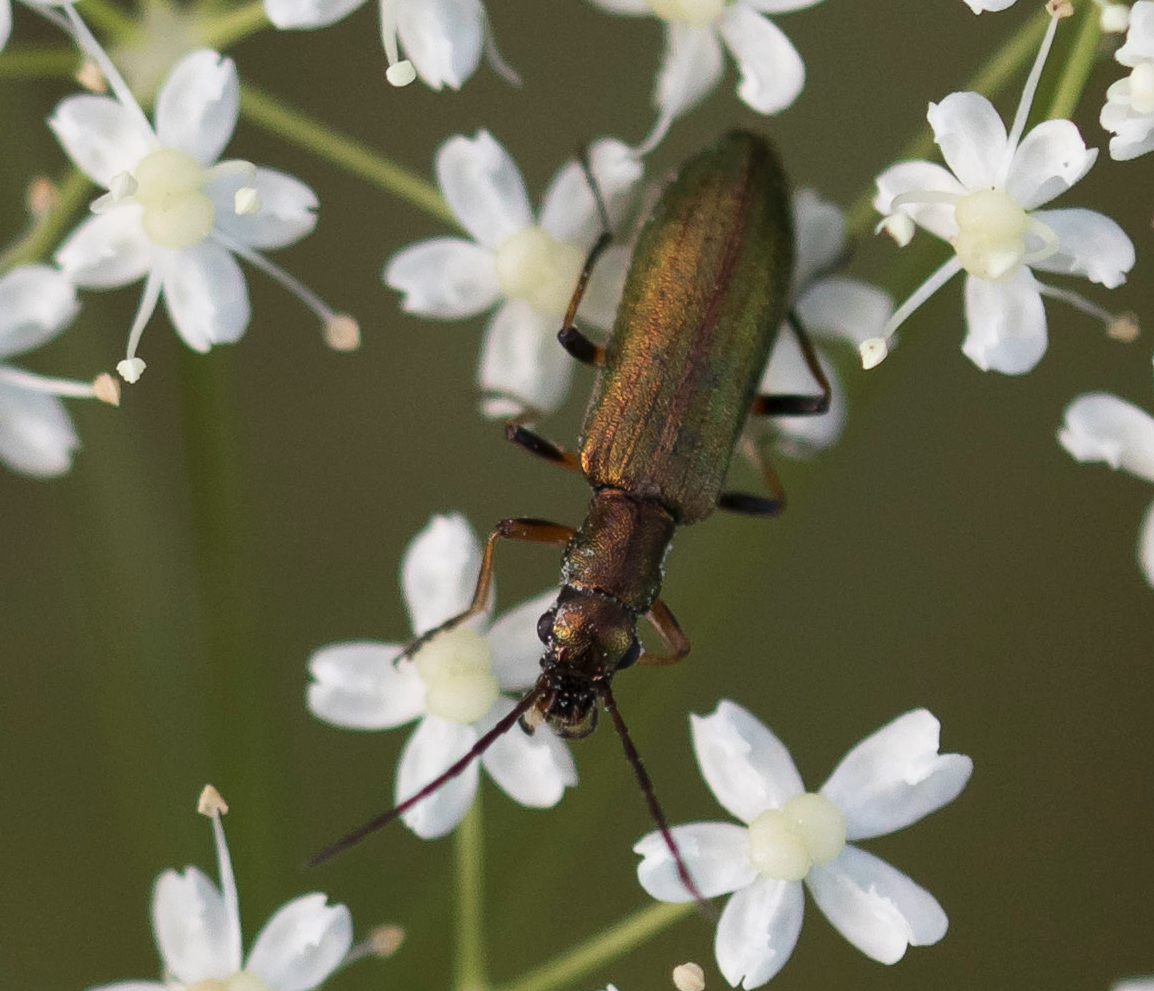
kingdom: Animalia
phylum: Arthropoda
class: Insecta
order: Coleoptera
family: Oedemeridae
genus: Chrysanthia
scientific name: Chrysanthia geniculata
